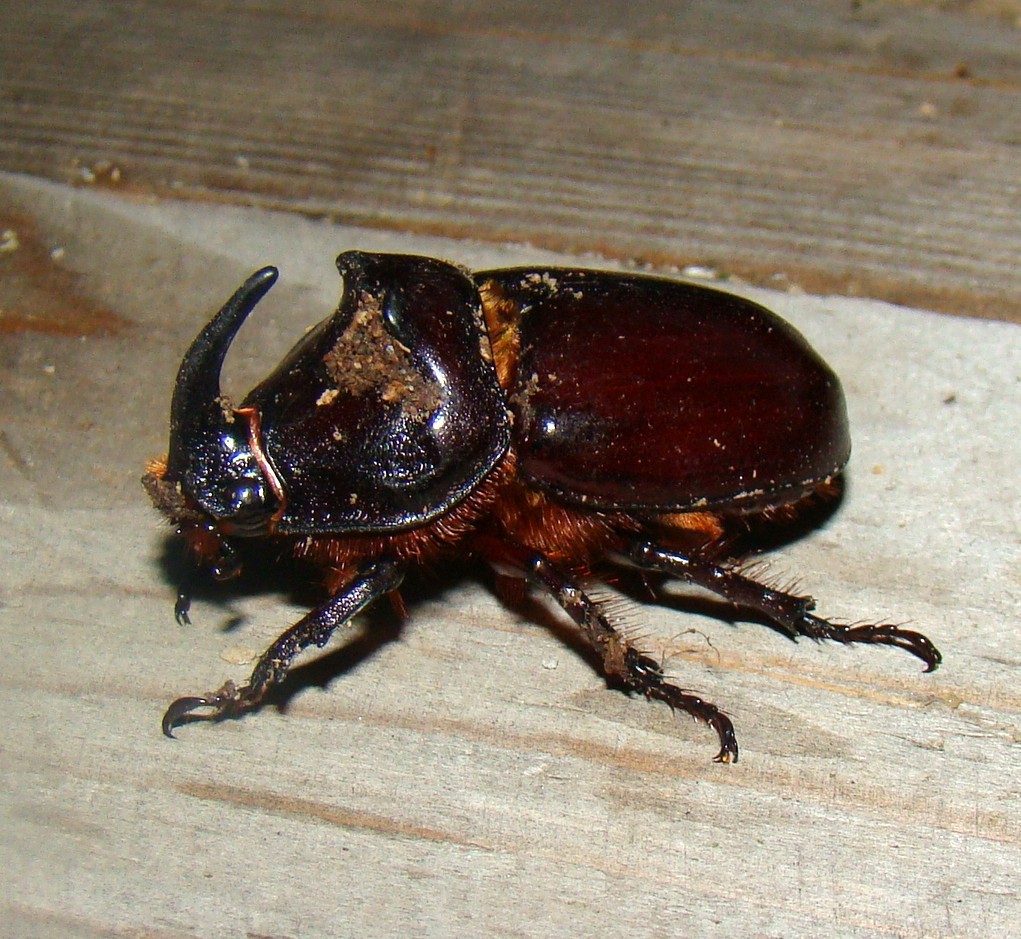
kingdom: Animalia
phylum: Arthropoda
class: Insecta
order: Coleoptera
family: Scarabaeidae
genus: Oryctes
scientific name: Oryctes nasicornis
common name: European rhinoceros beetle
